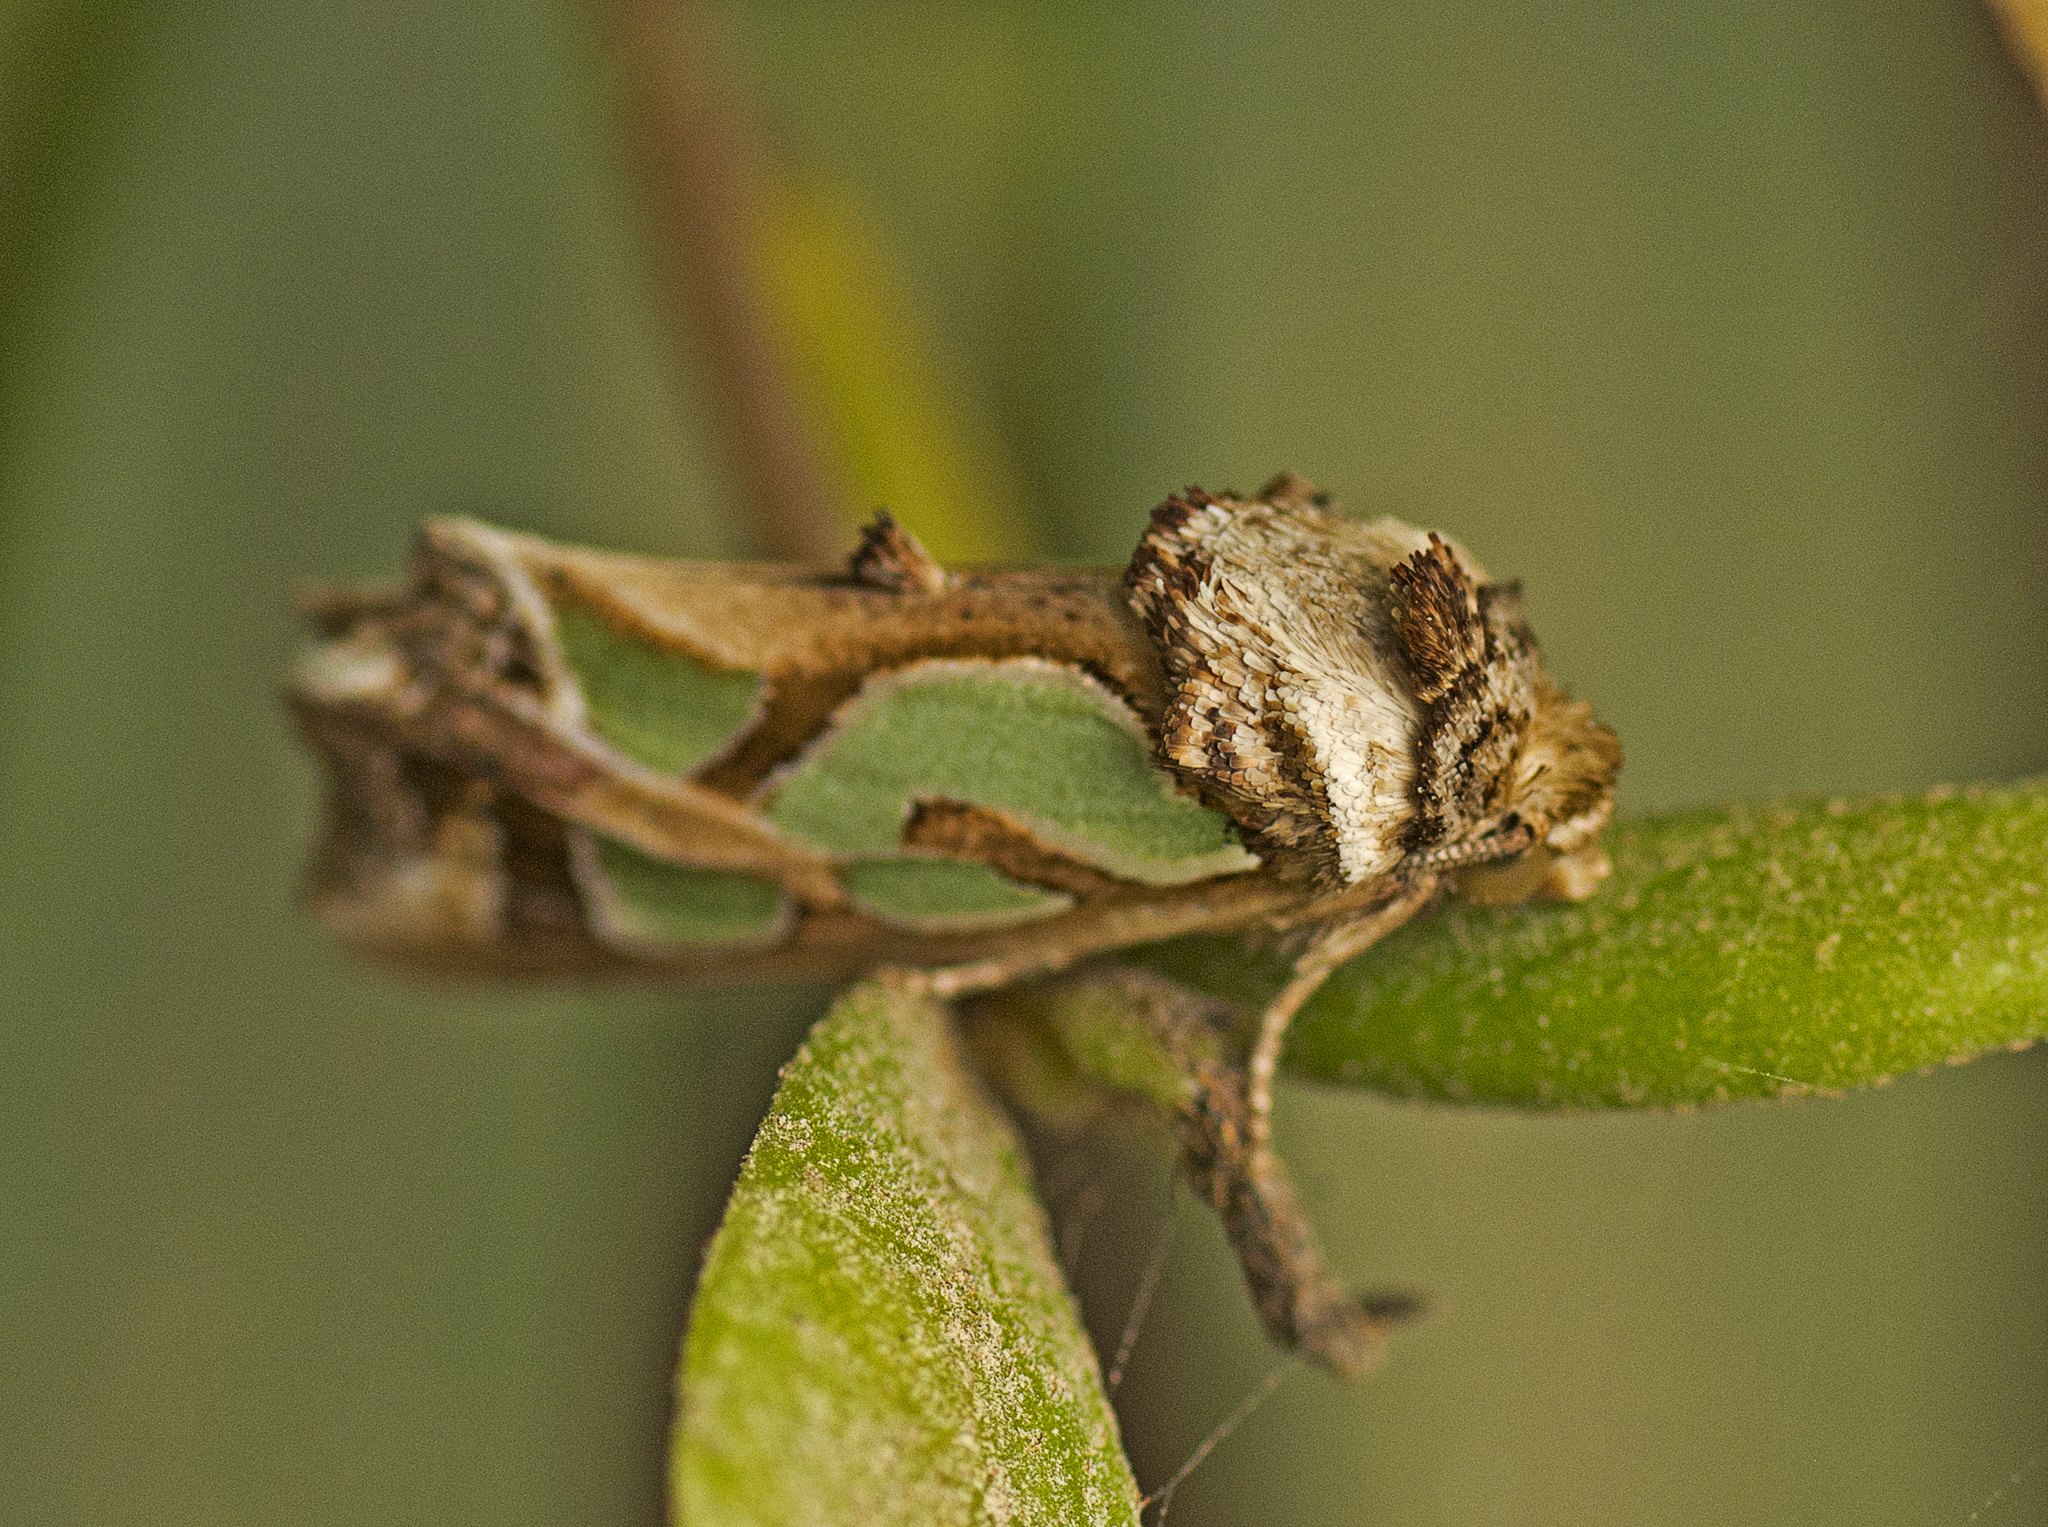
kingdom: Animalia
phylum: Arthropoda
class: Insecta
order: Lepidoptera
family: Noctuidae
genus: Cosmodes
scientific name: Cosmodes elegans
